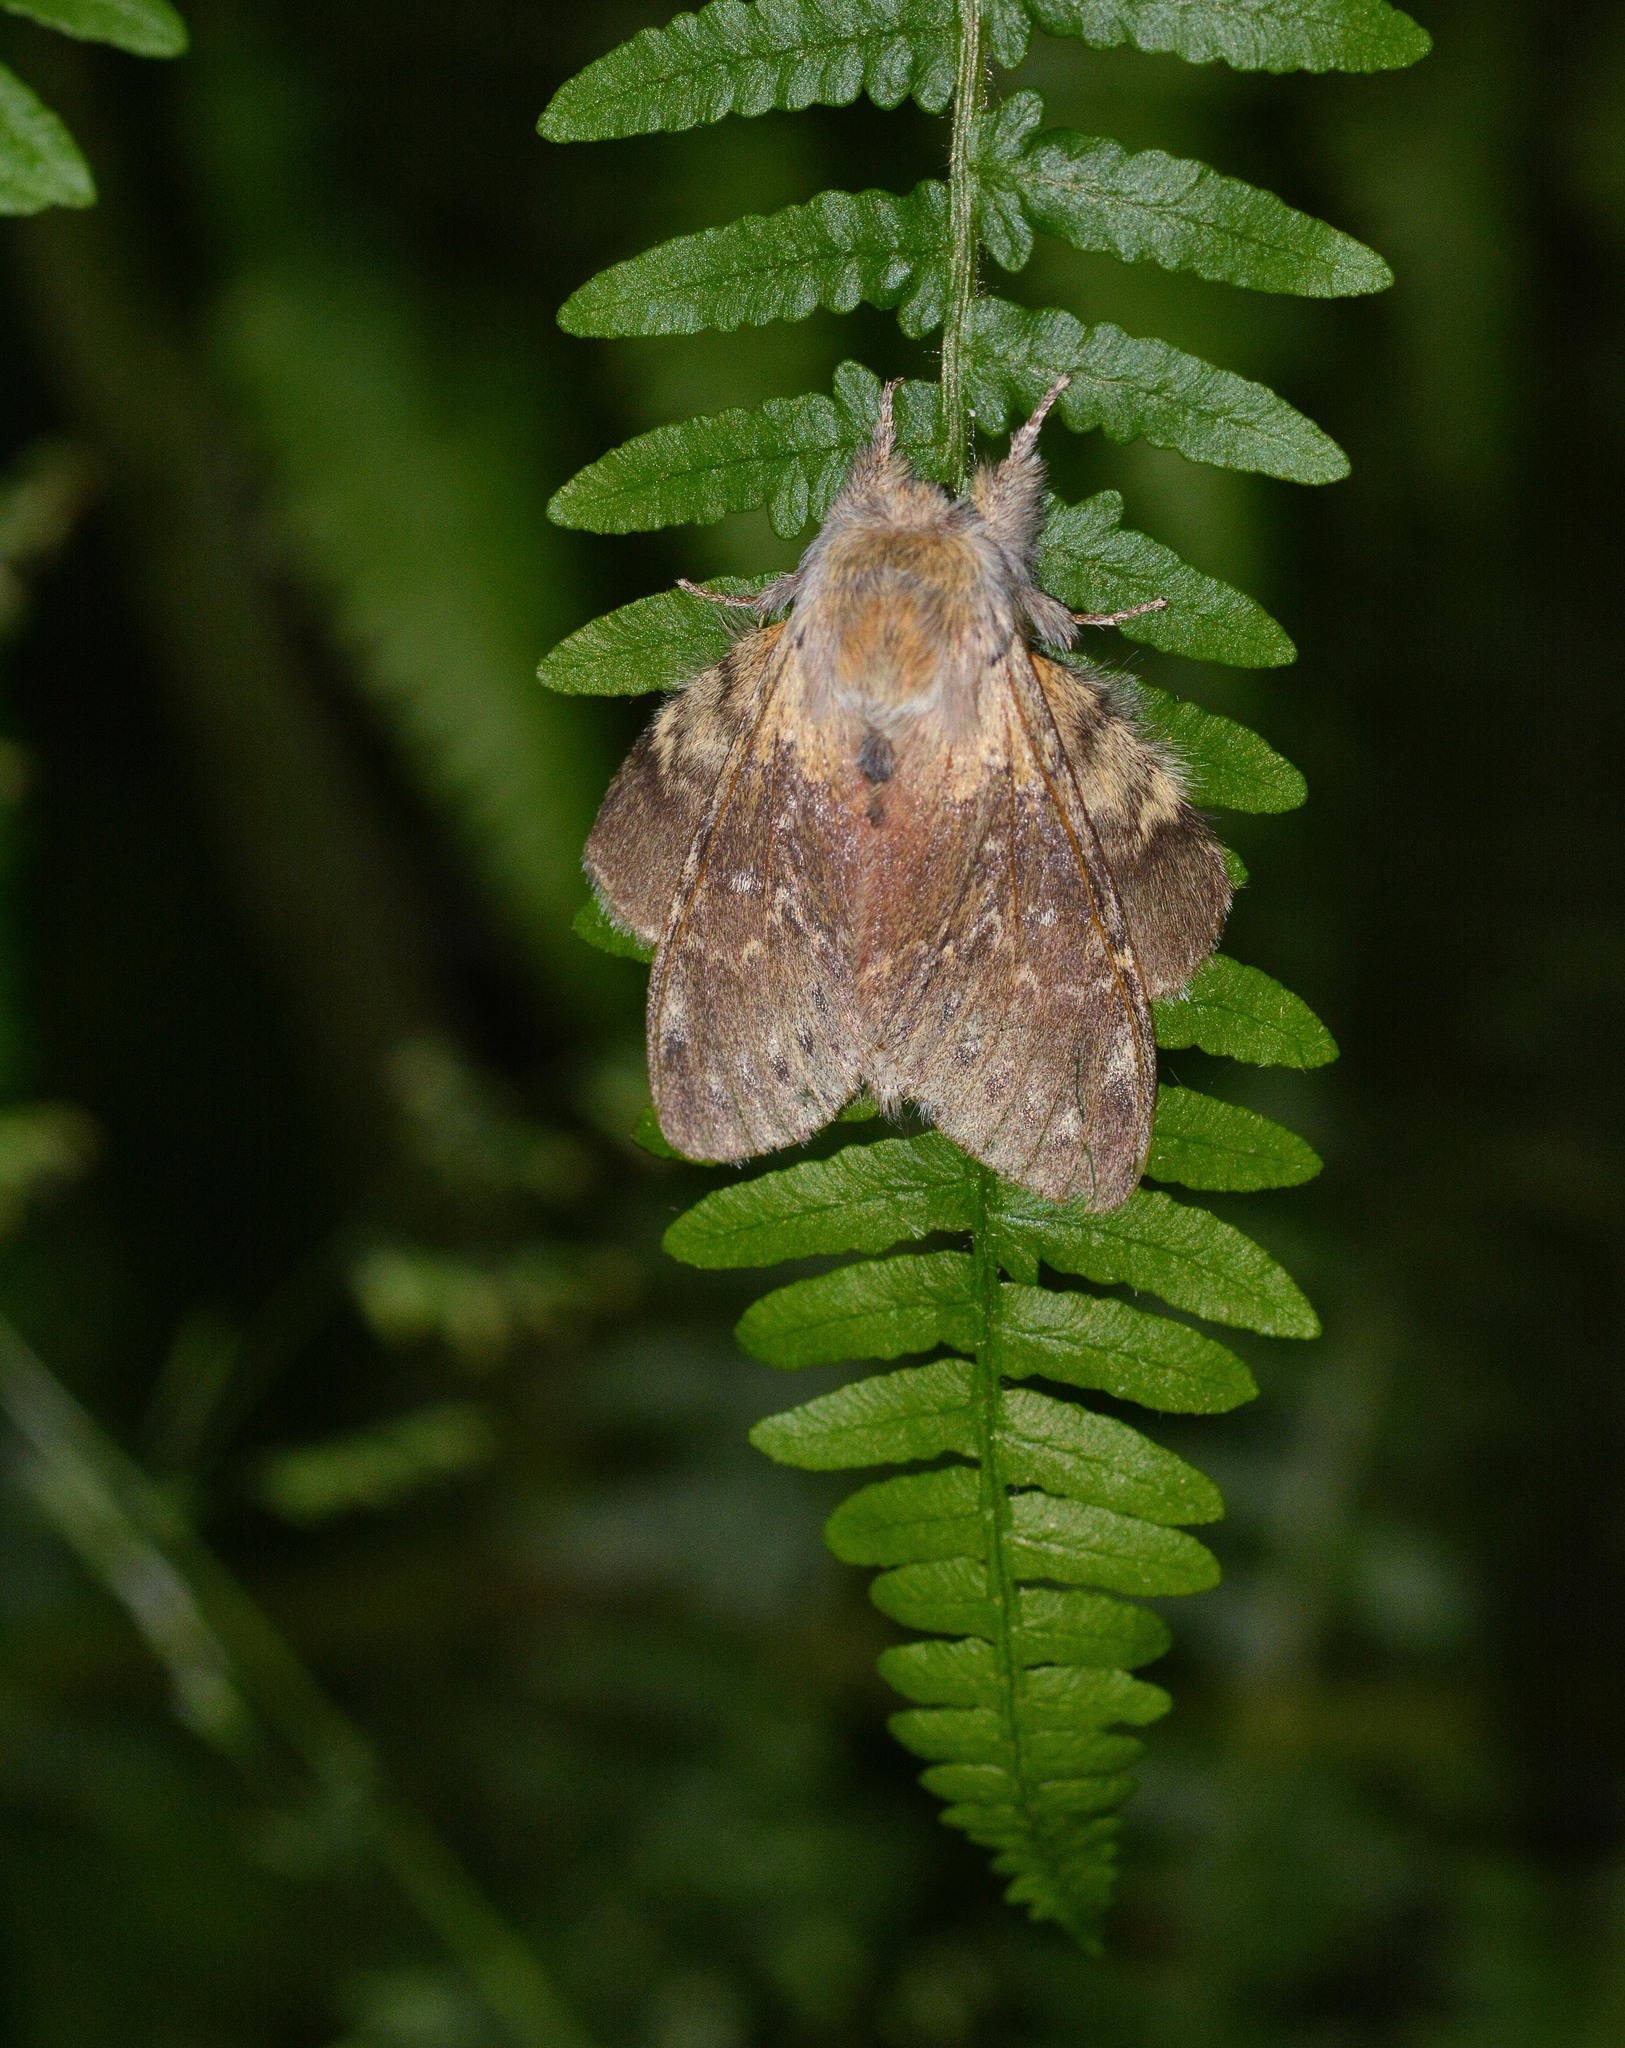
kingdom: Animalia
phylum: Arthropoda
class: Insecta
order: Lepidoptera
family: Notodontidae
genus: Stauropus
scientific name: Stauropus fagi
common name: Lobster moth
